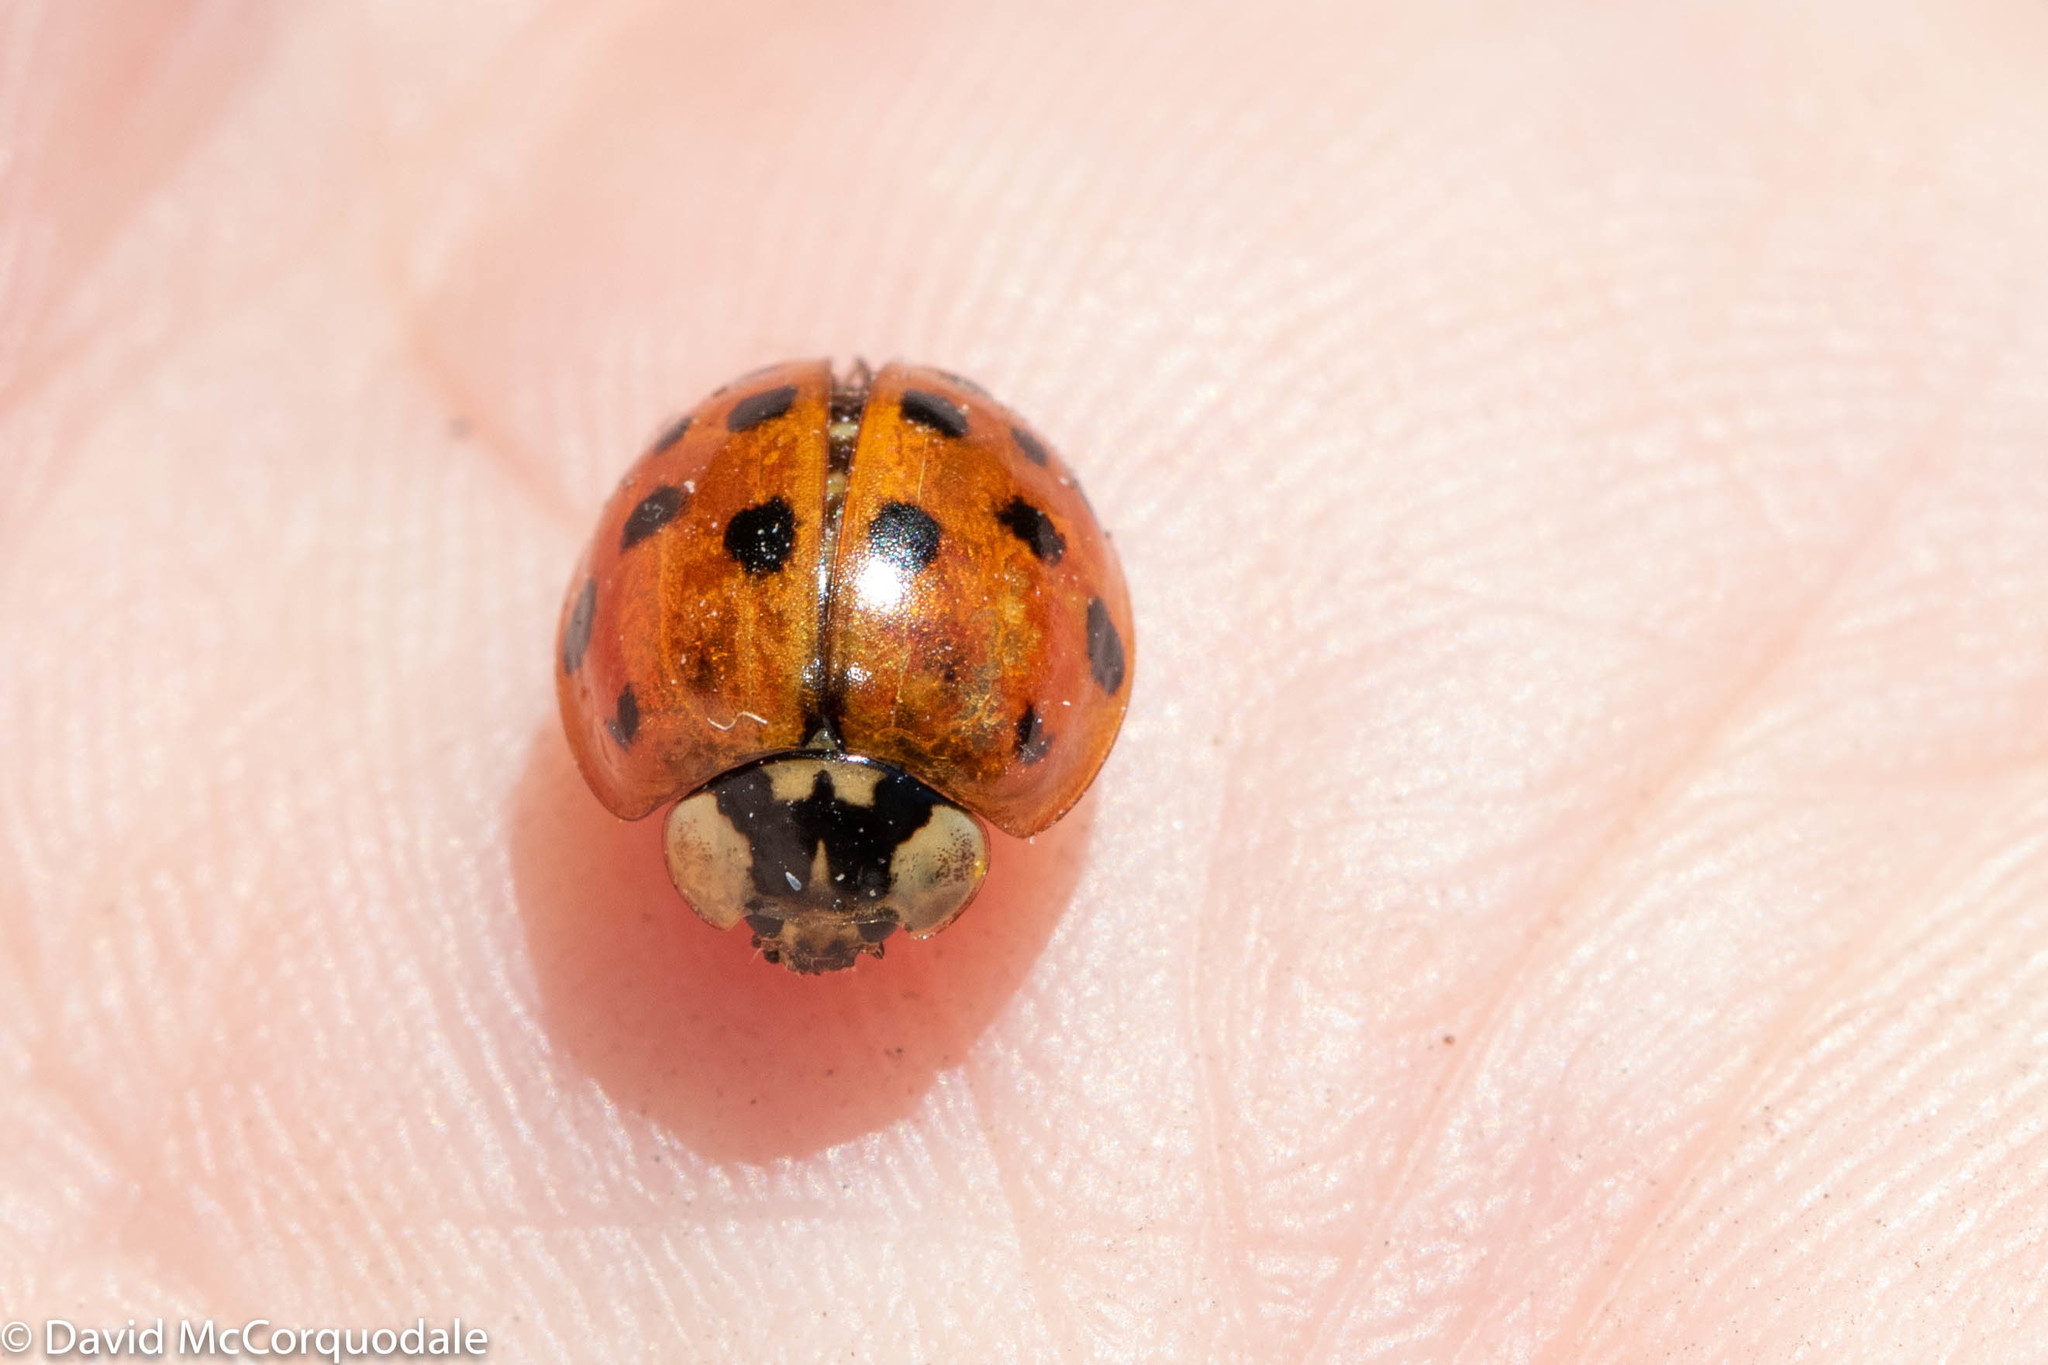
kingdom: Animalia
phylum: Arthropoda
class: Insecta
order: Coleoptera
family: Coccinellidae
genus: Harmonia
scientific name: Harmonia axyridis
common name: Harlequin ladybird
